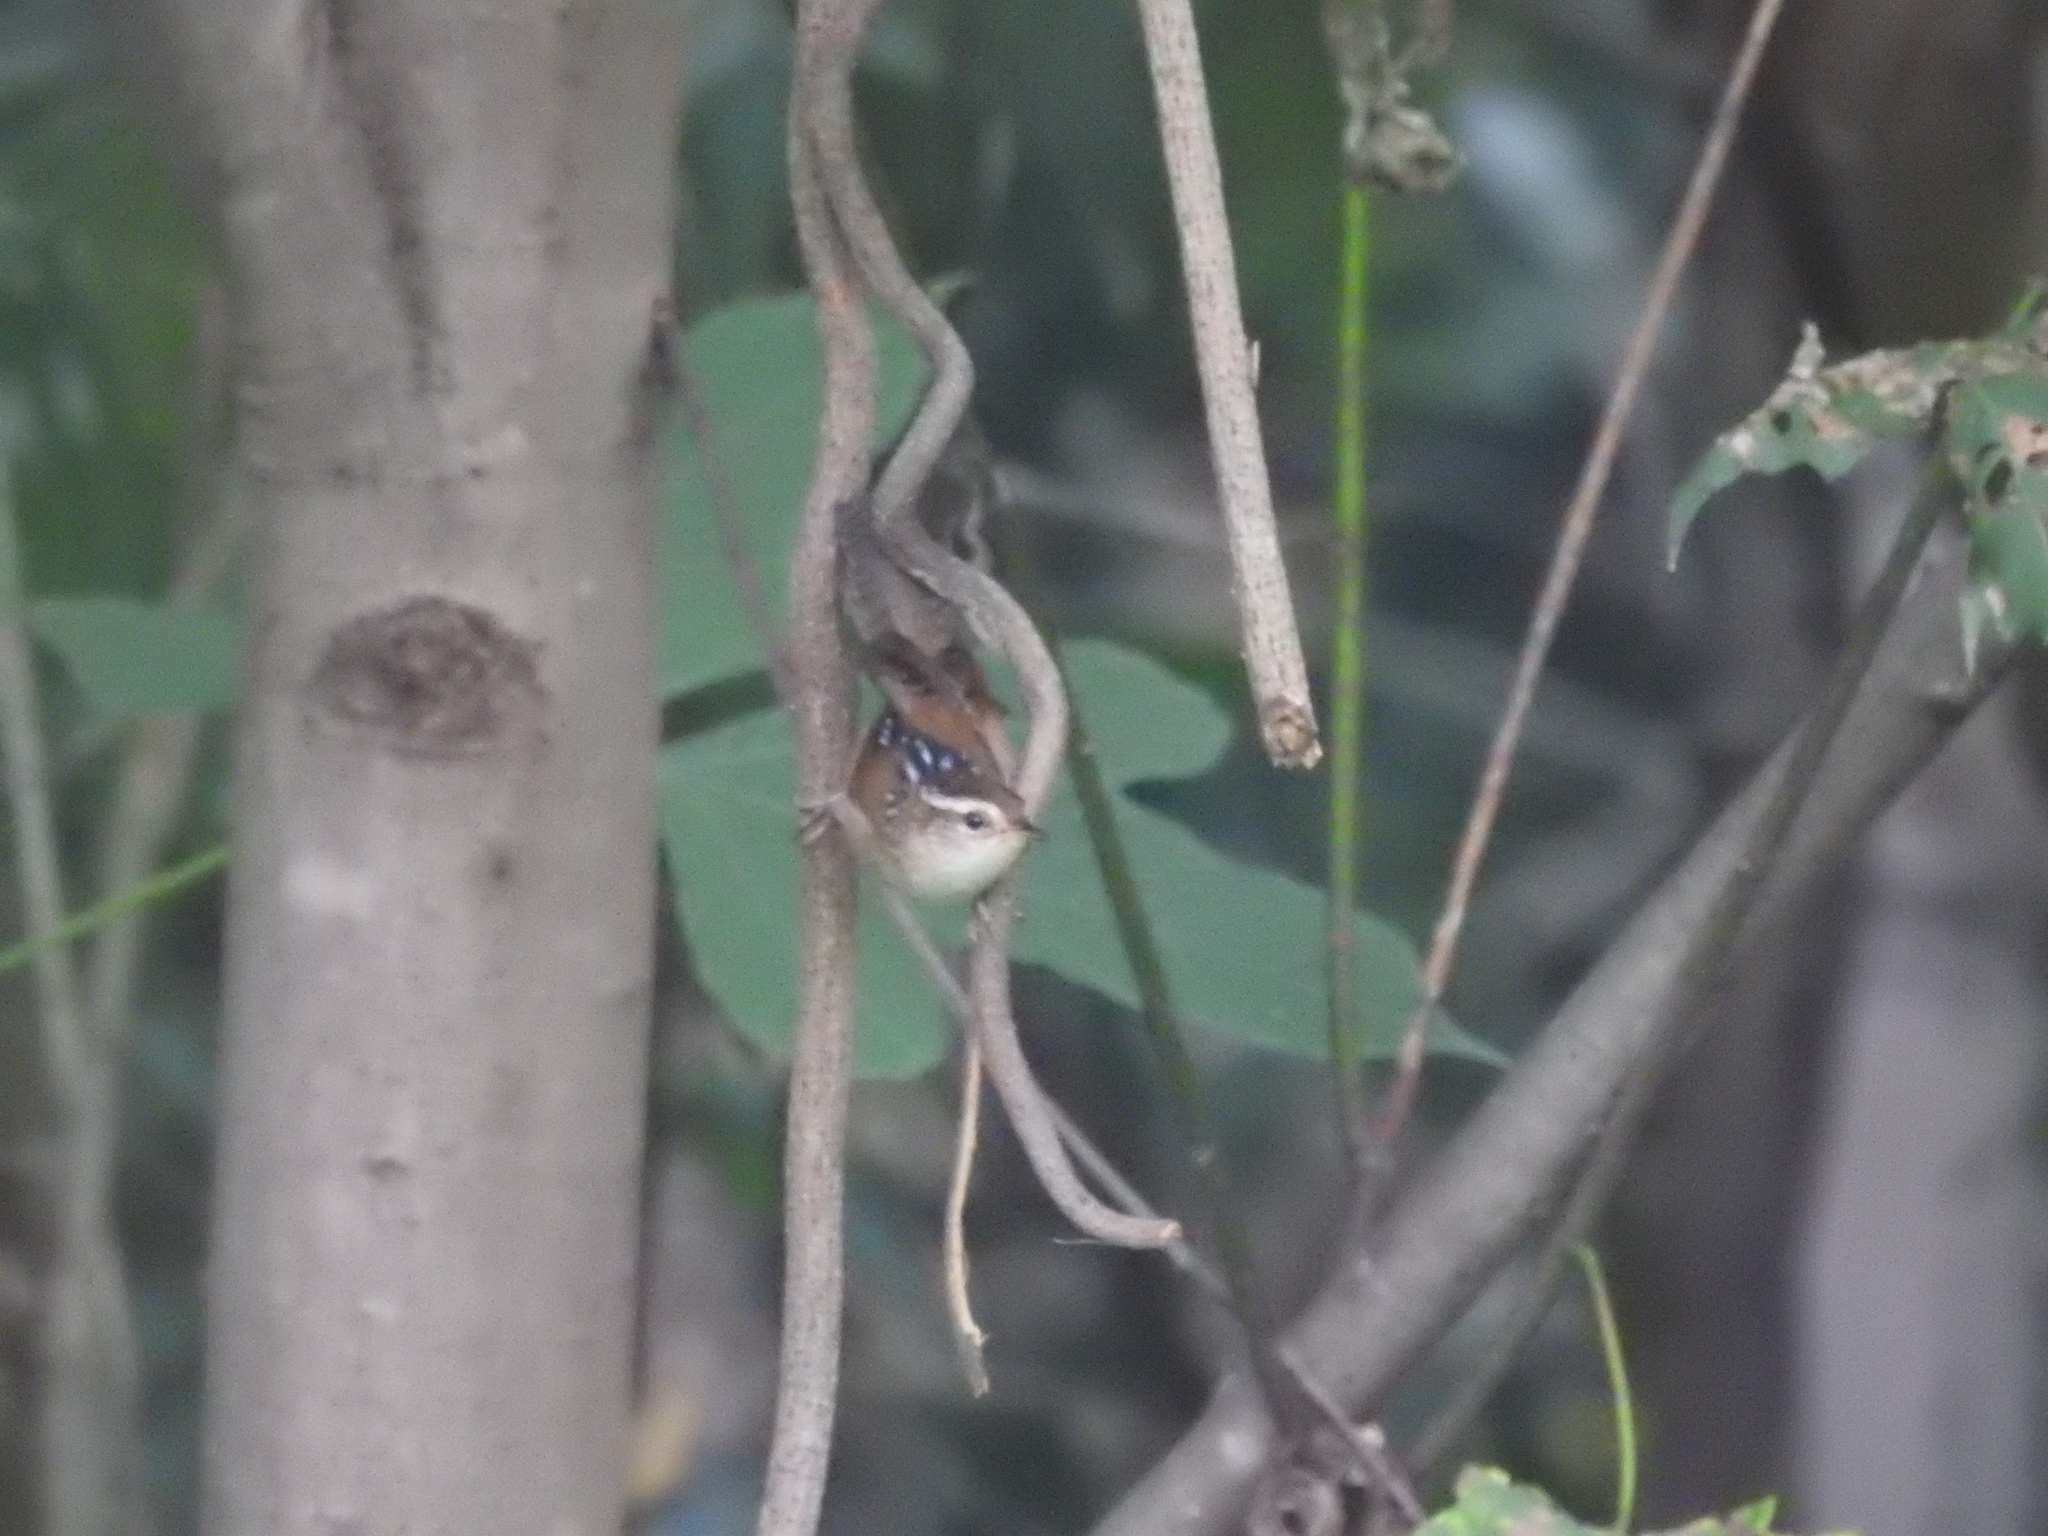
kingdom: Animalia
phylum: Chordata
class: Aves
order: Passeriformes
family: Troglodytidae
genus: Cistothorus
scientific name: Cistothorus palustris
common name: Marsh wren
